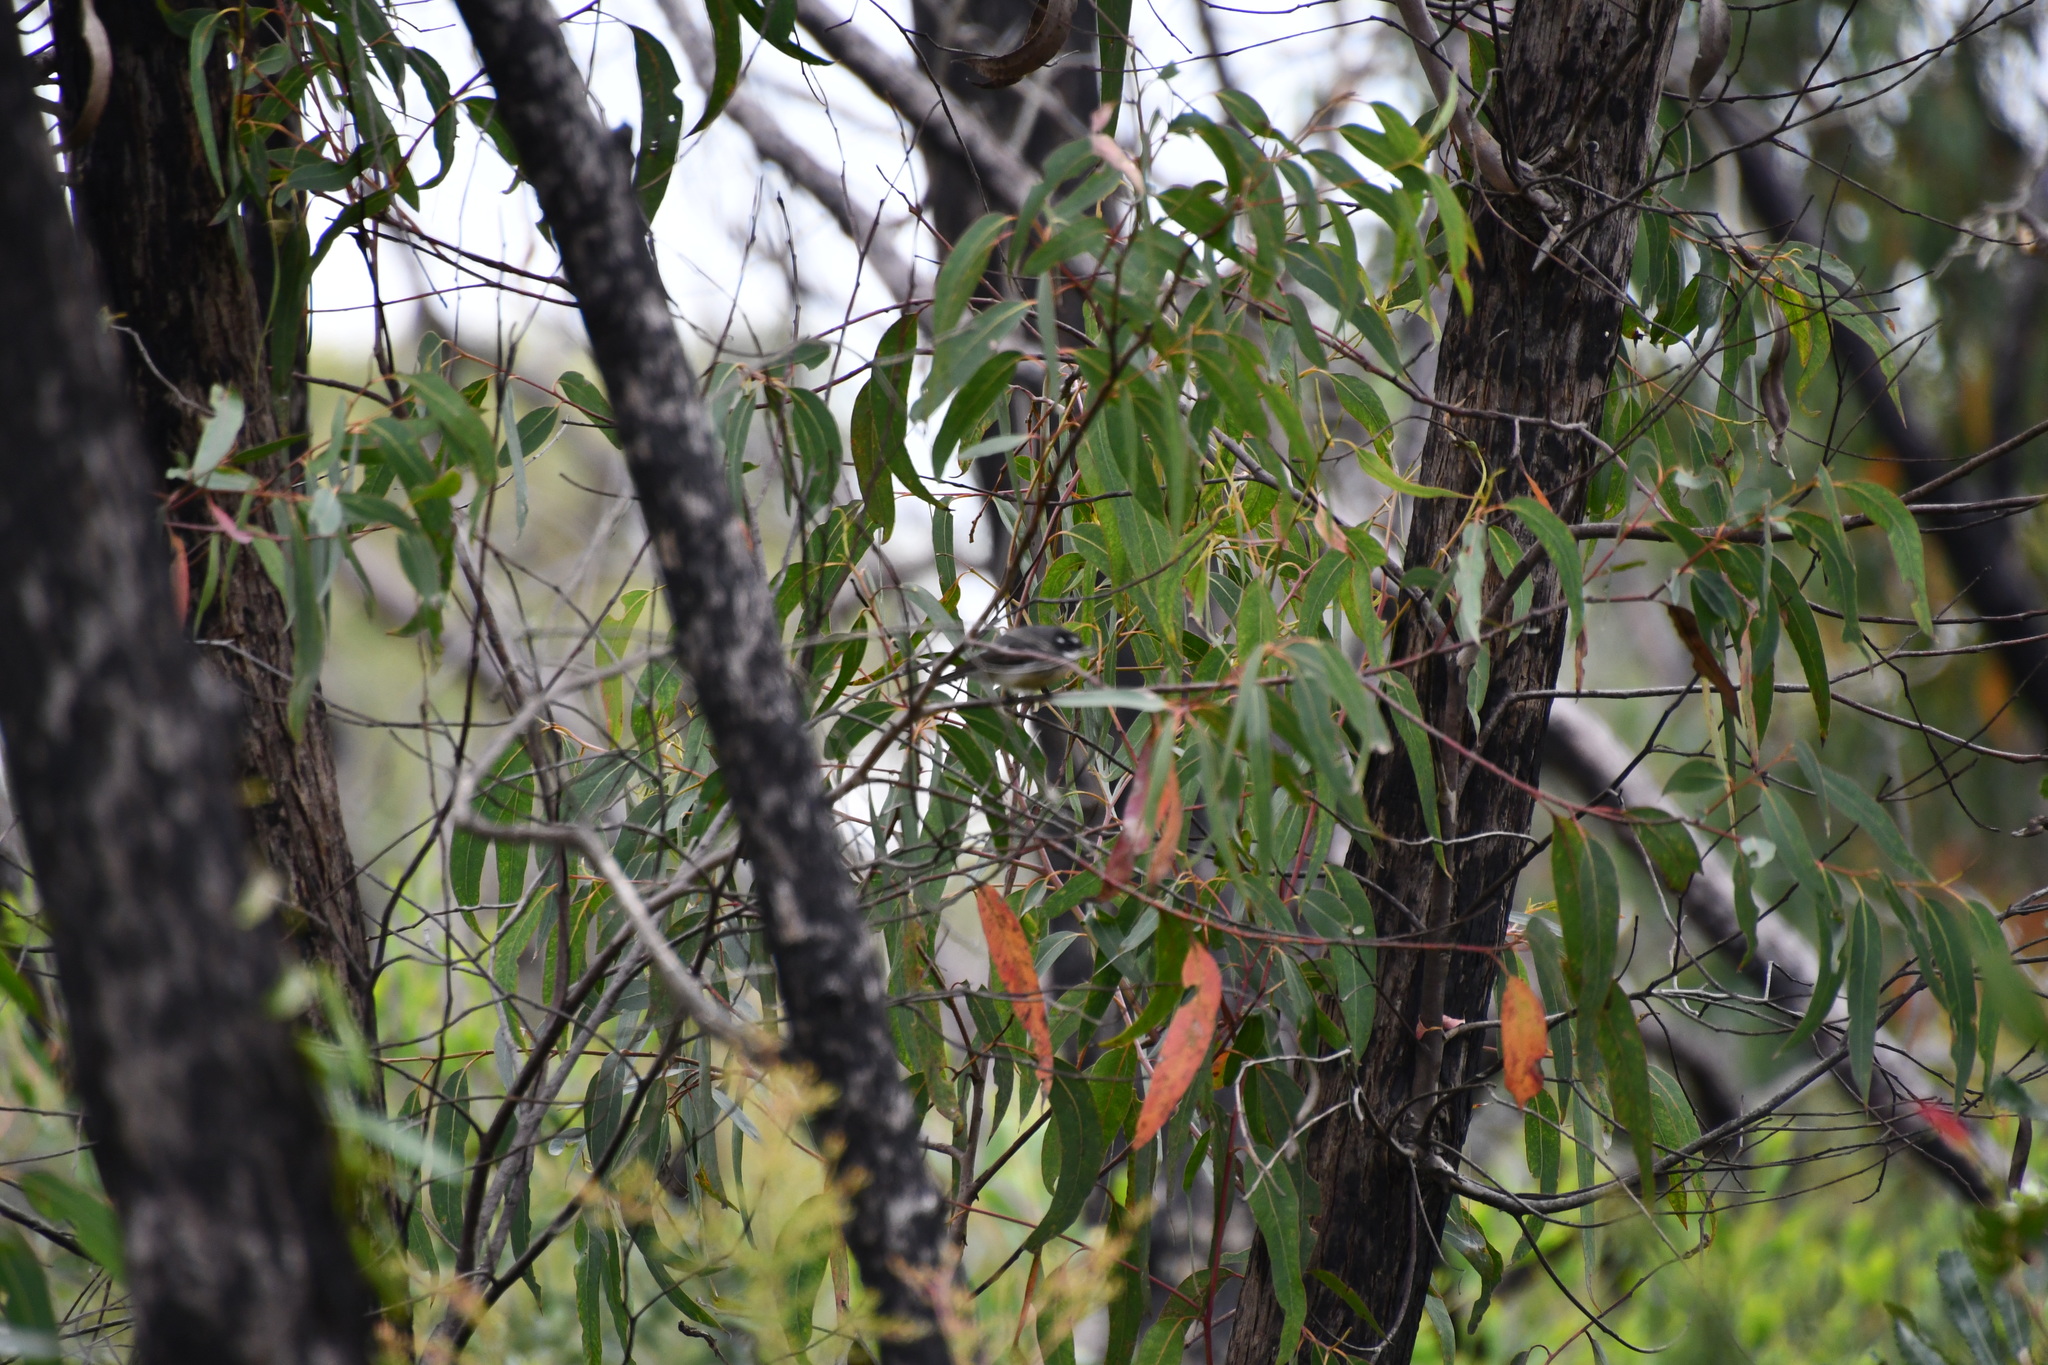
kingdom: Animalia
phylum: Chordata
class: Aves
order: Passeriformes
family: Rhipiduridae
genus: Rhipidura
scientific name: Rhipidura albiscapa
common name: Grey fantail
